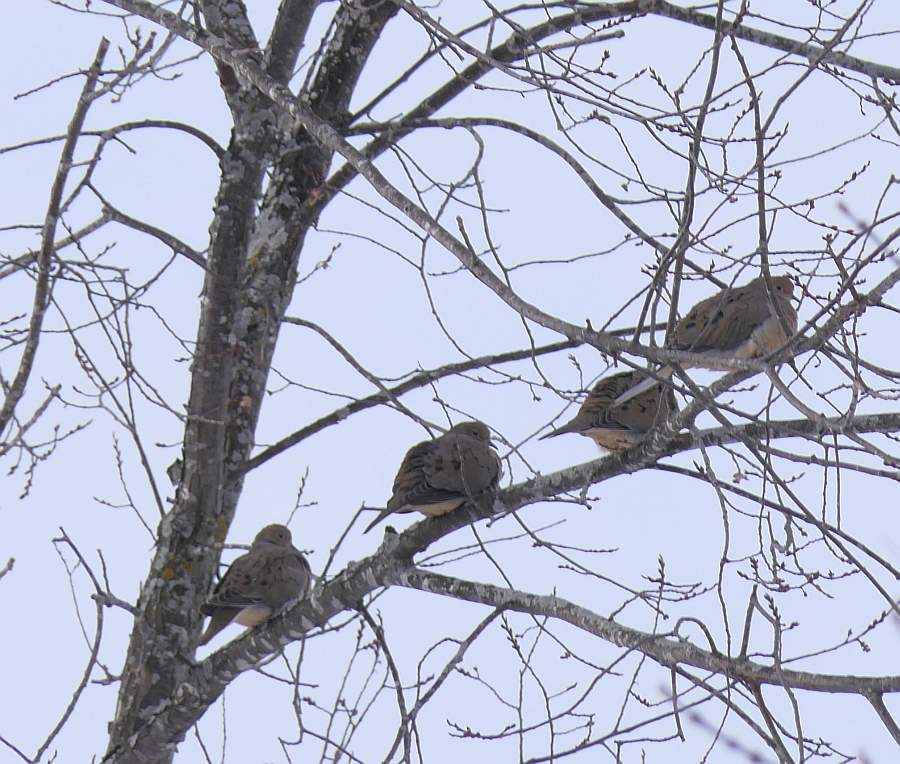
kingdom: Animalia
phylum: Chordata
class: Aves
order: Columbiformes
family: Columbidae
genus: Zenaida
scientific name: Zenaida macroura
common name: Mourning dove
